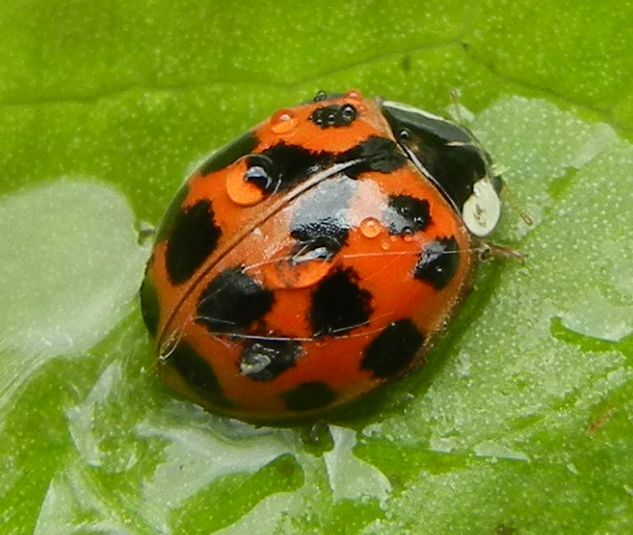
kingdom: Animalia
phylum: Arthropoda
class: Insecta
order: Coleoptera
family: Coccinellidae
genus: Harmonia
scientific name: Harmonia axyridis
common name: Harlequin ladybird
